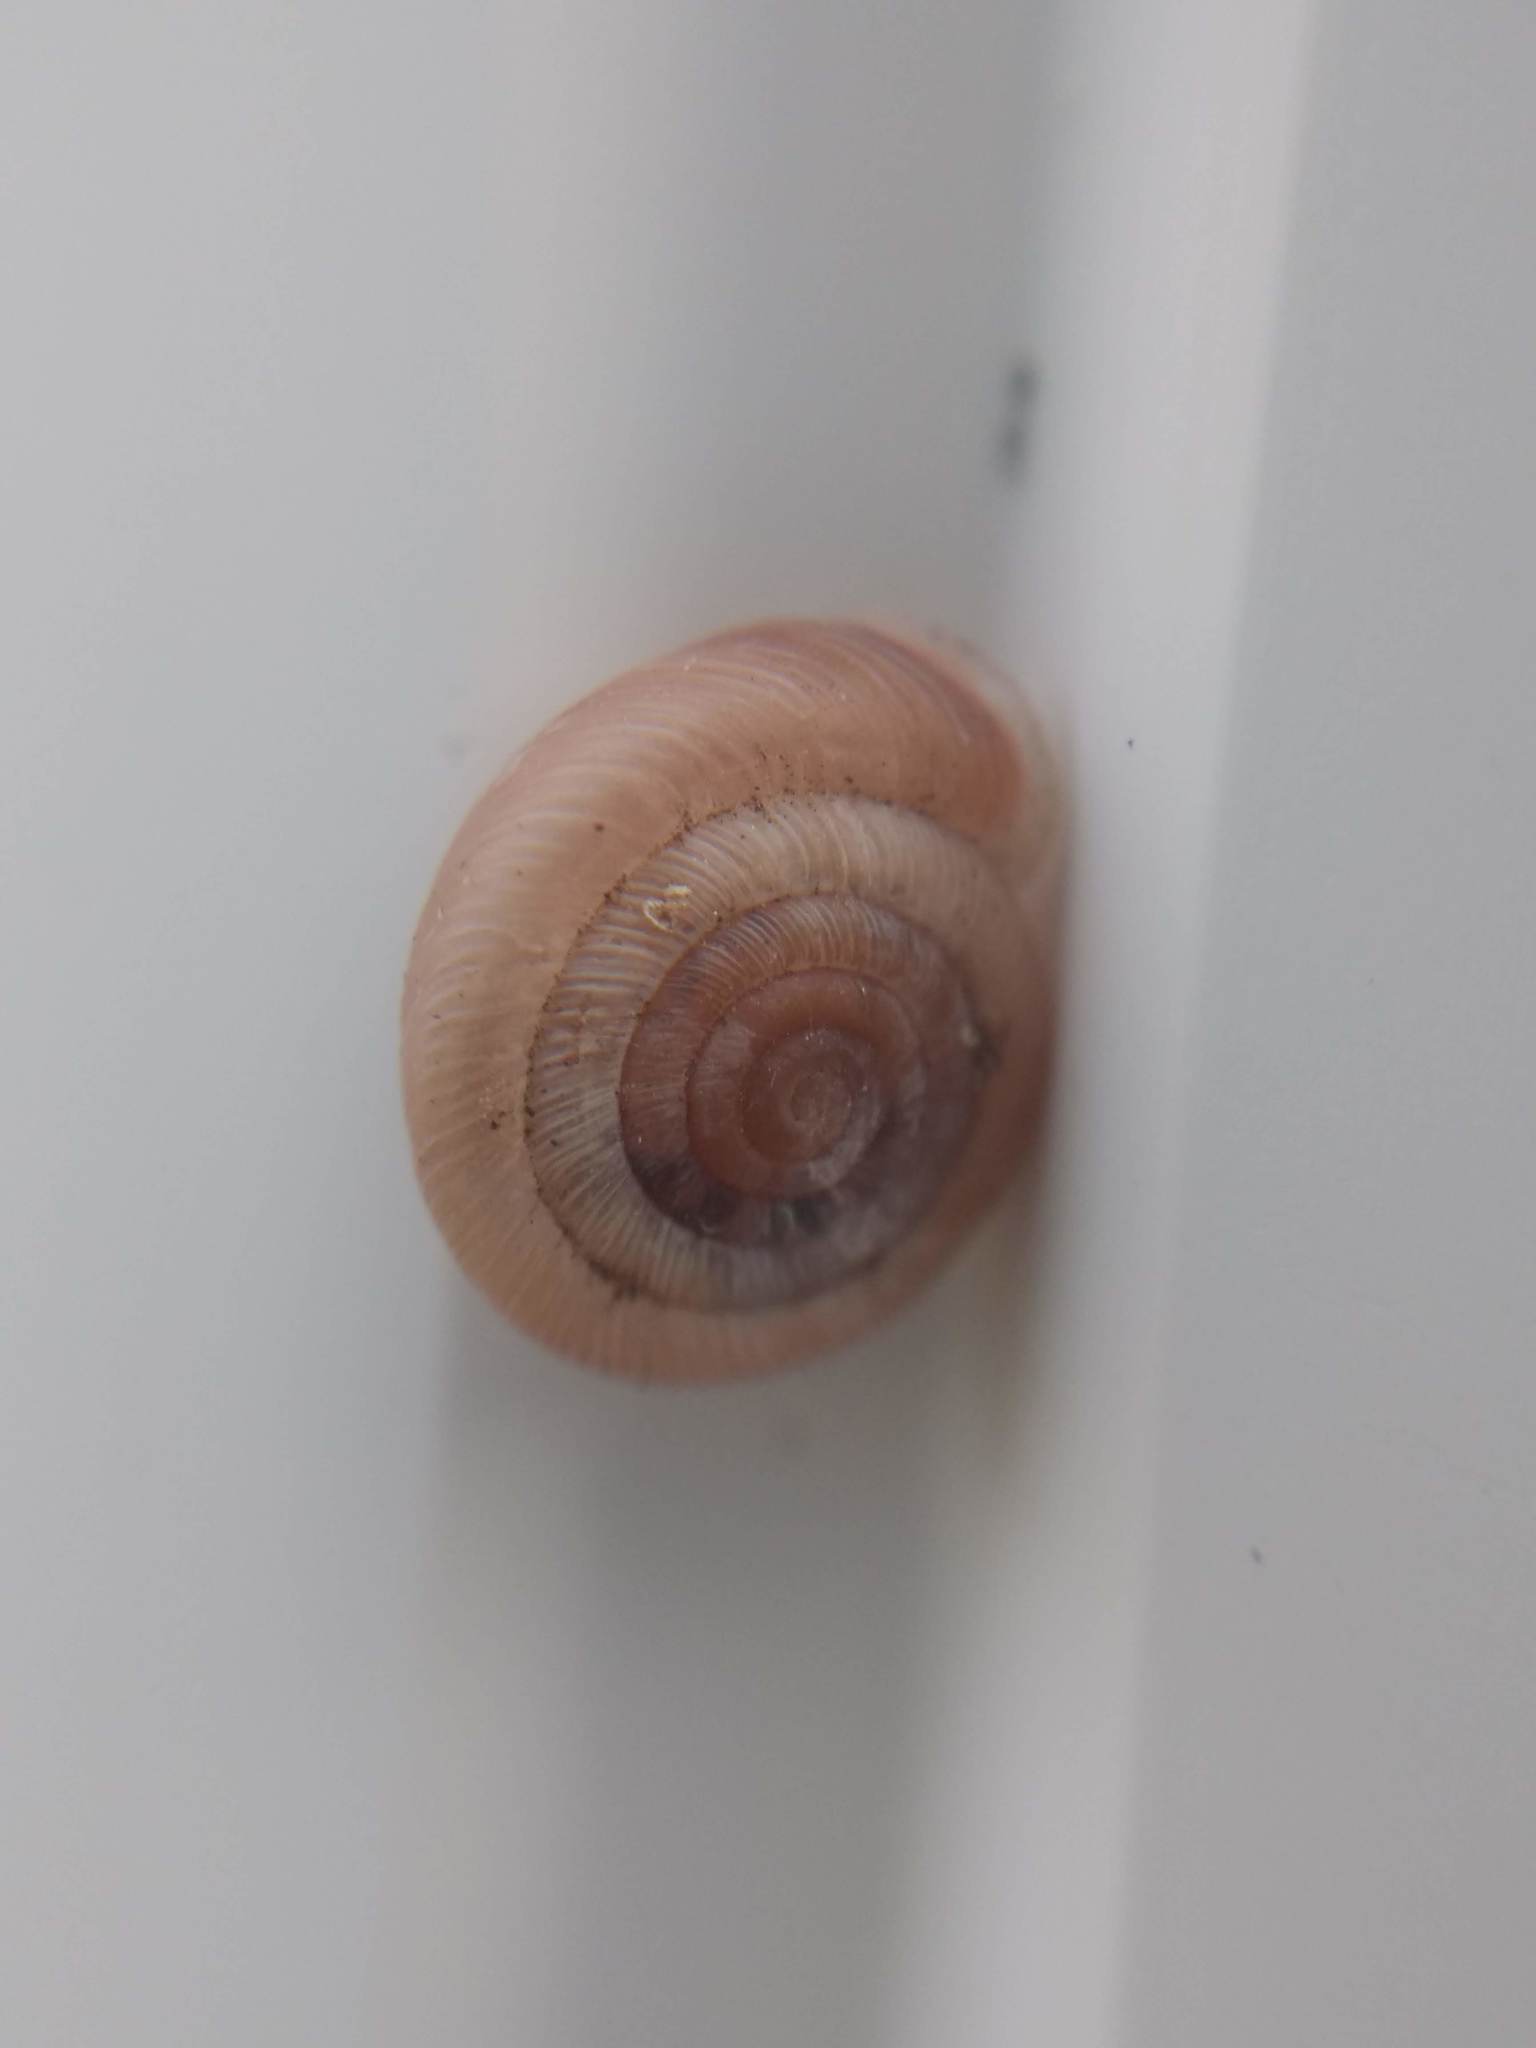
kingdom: Animalia
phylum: Mollusca
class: Gastropoda
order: Stylommatophora
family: Polygyridae
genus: Polygyra
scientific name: Polygyra cereolus
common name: Southern flatcone snail
